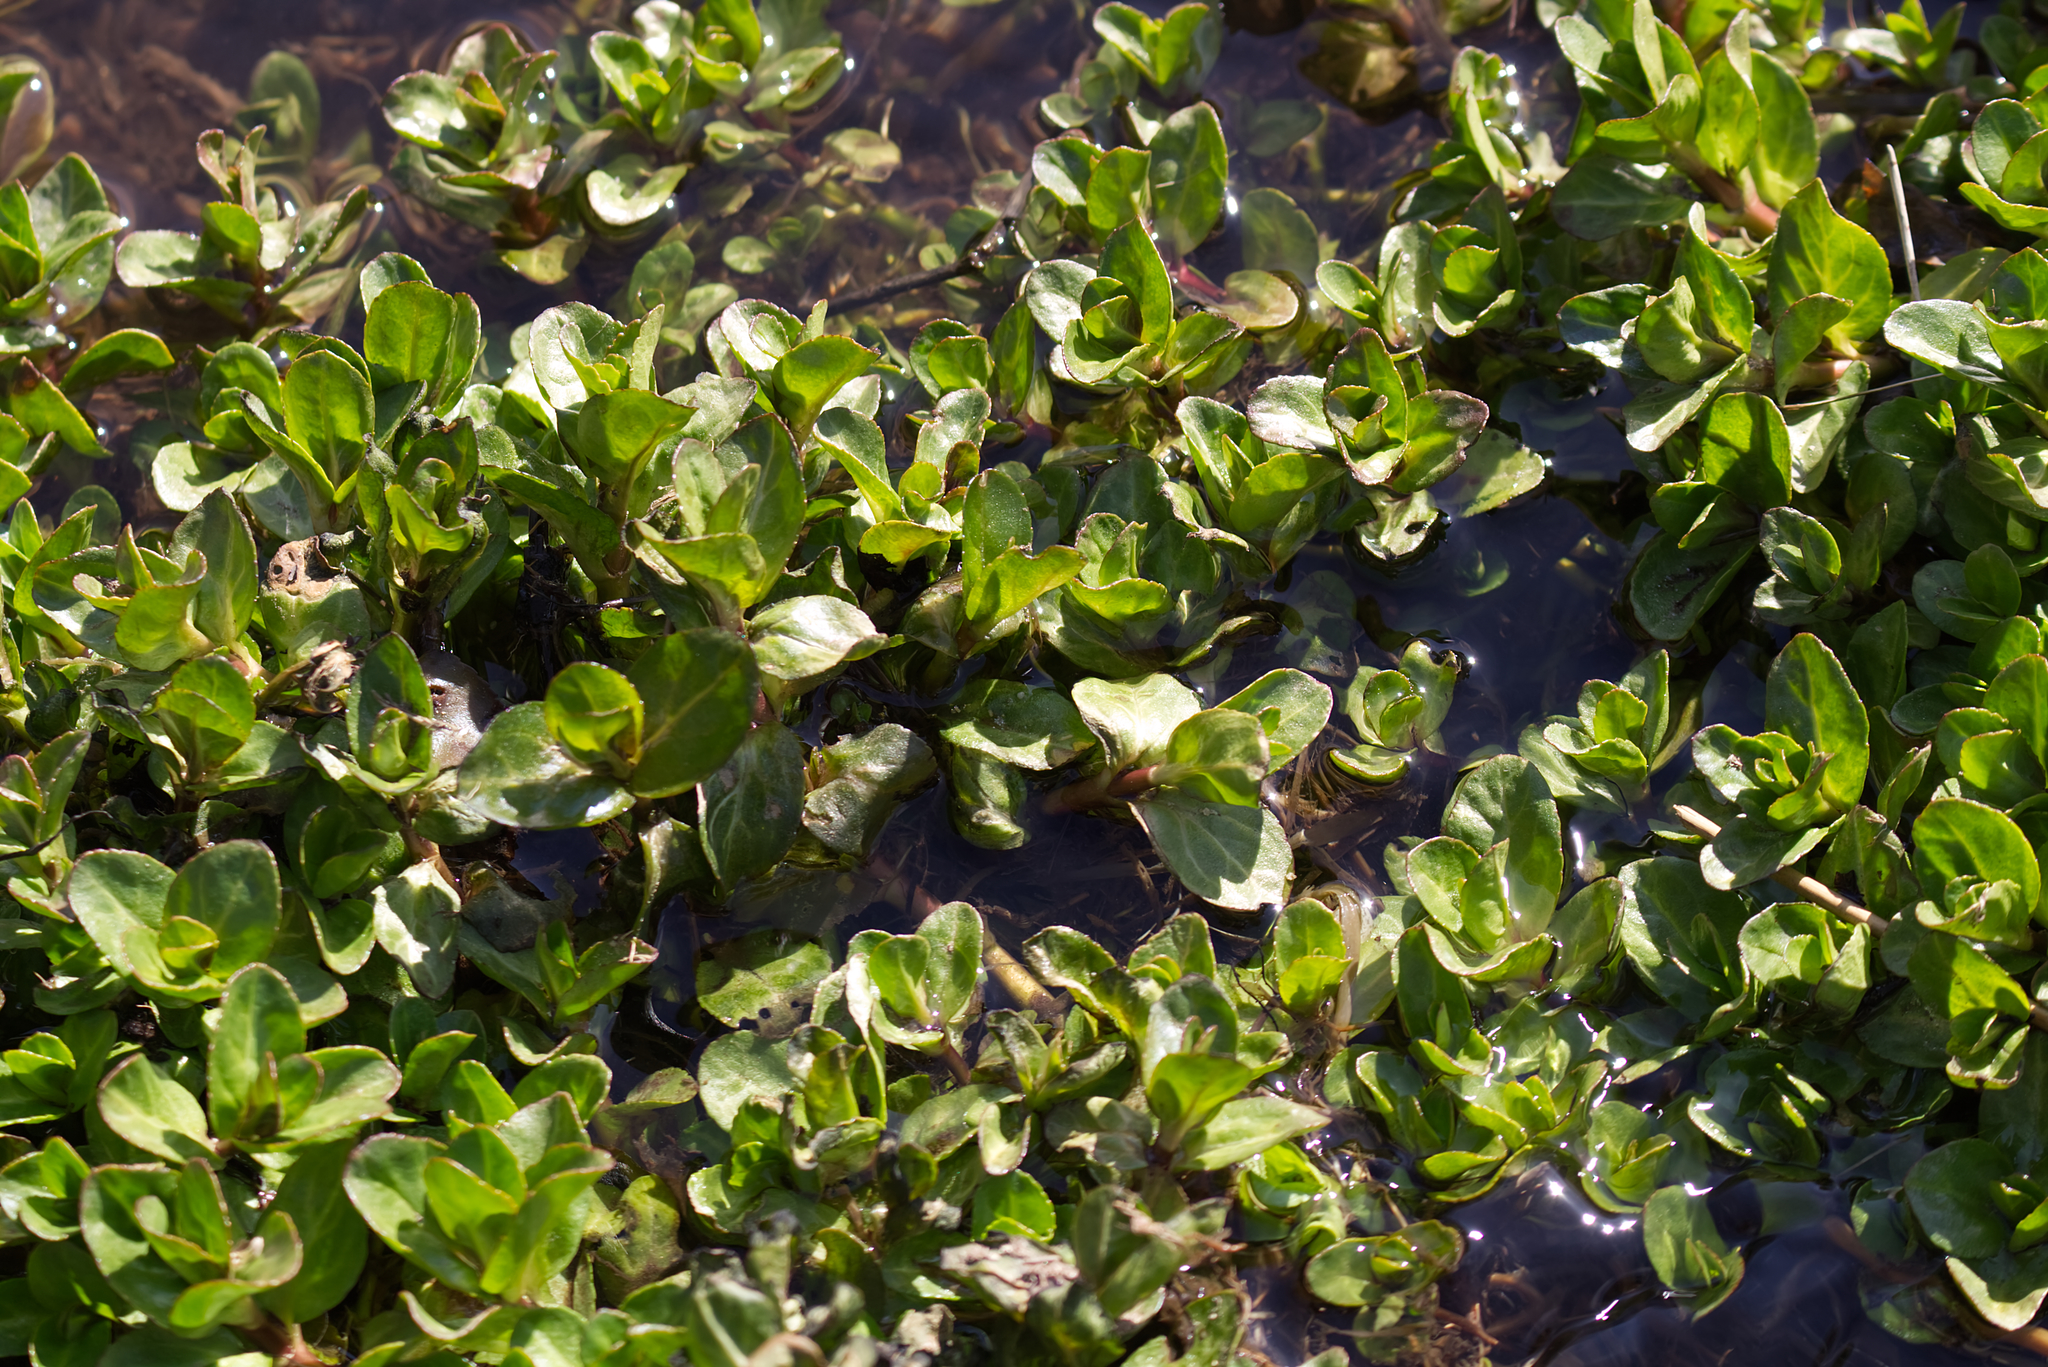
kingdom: Plantae
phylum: Tracheophyta
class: Magnoliopsida
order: Lamiales
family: Plantaginaceae
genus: Veronica
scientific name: Veronica beccabunga
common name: Brooklime
